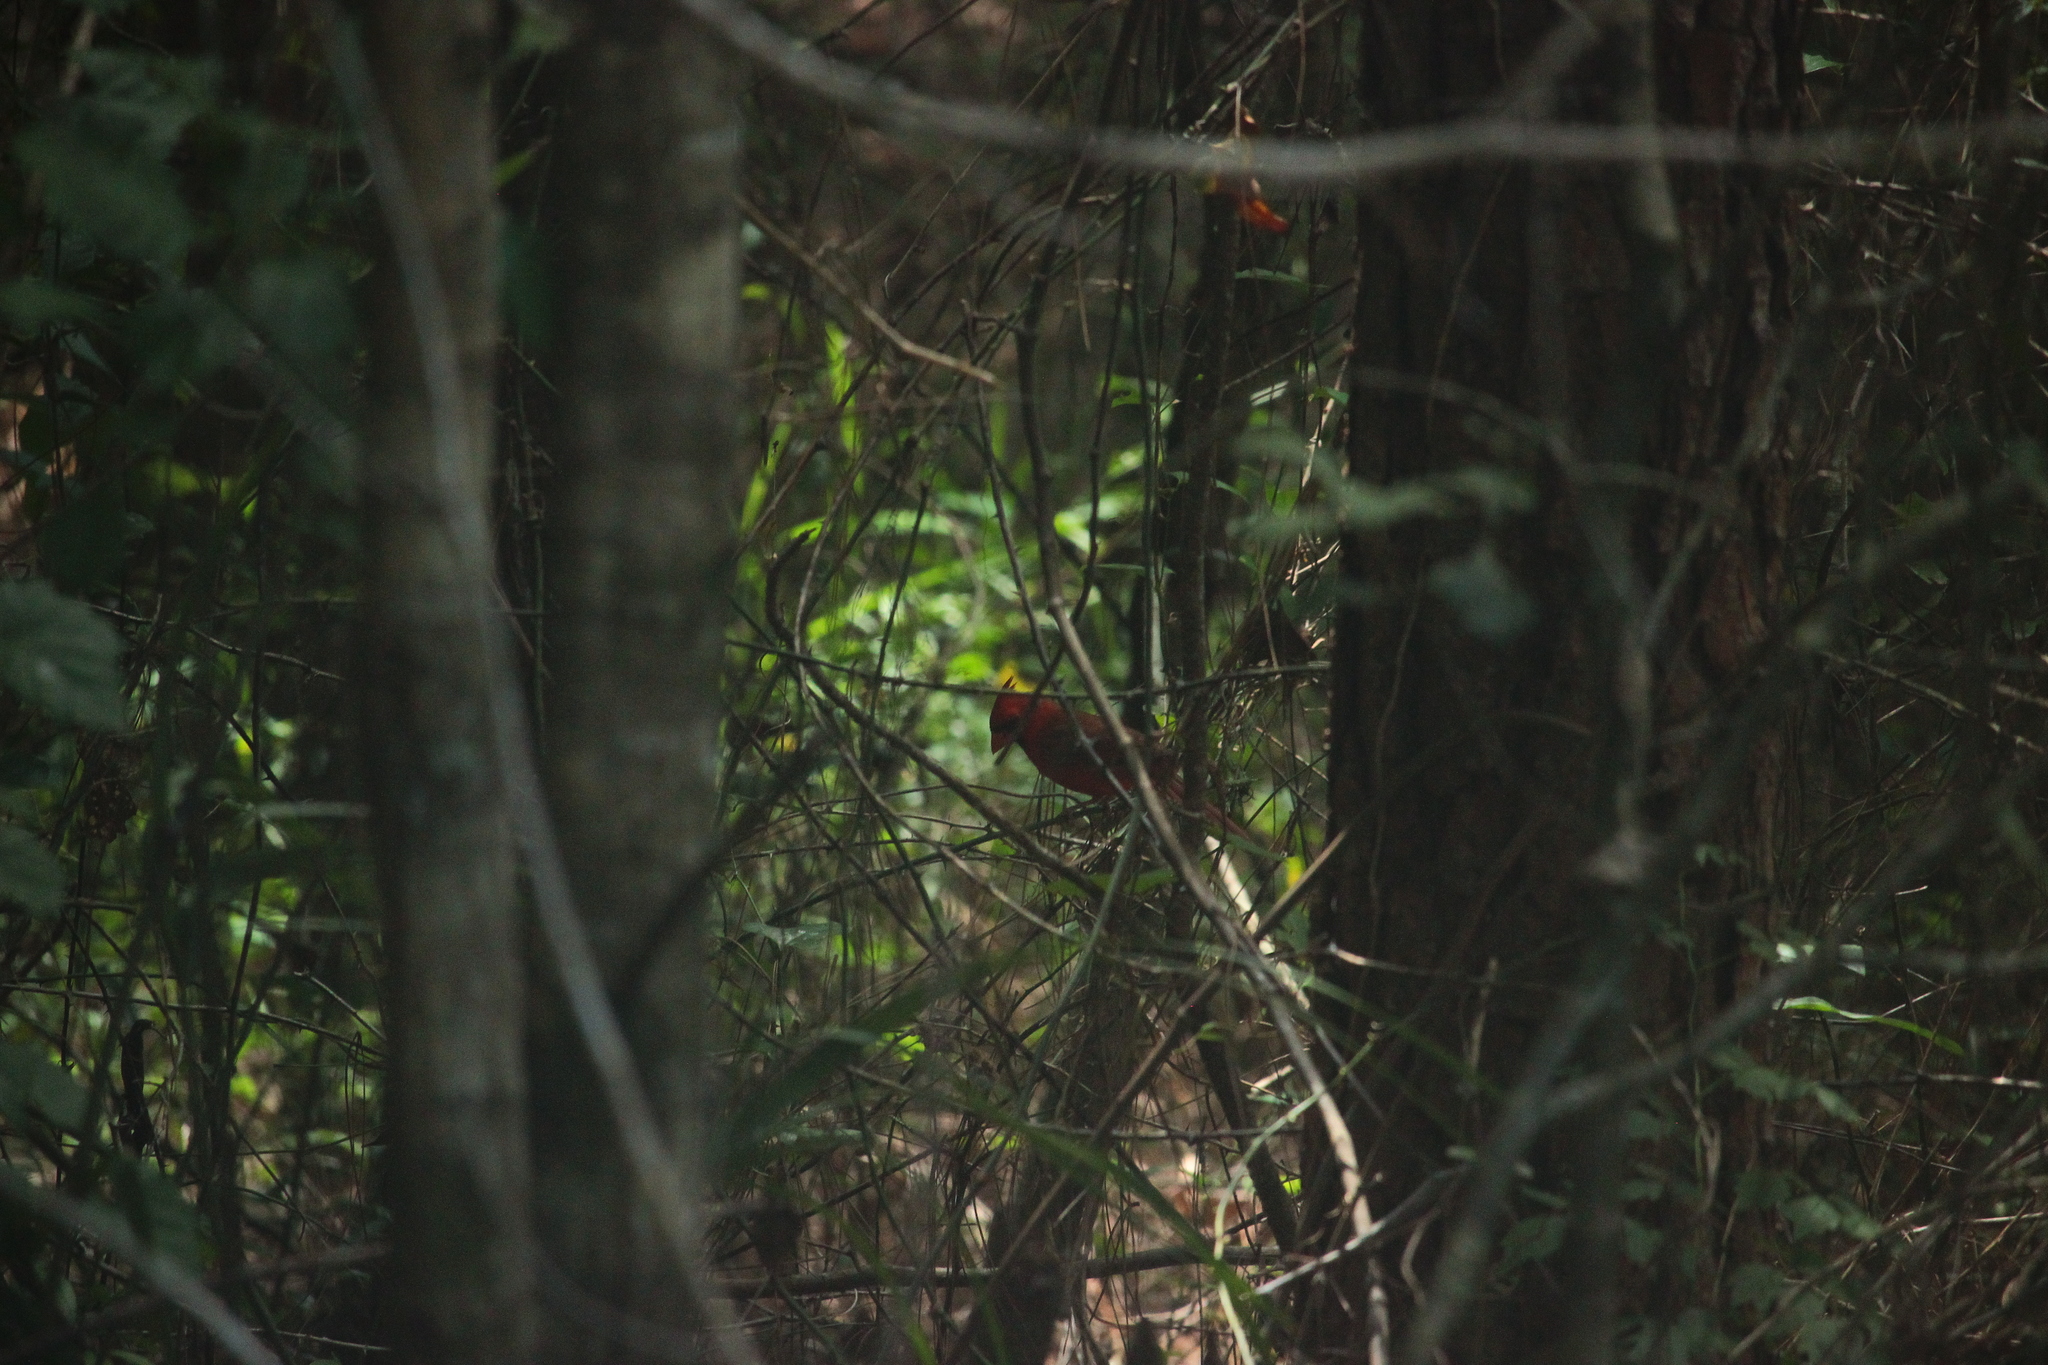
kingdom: Animalia
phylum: Chordata
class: Aves
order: Passeriformes
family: Cardinalidae
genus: Cardinalis
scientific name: Cardinalis cardinalis
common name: Northern cardinal
